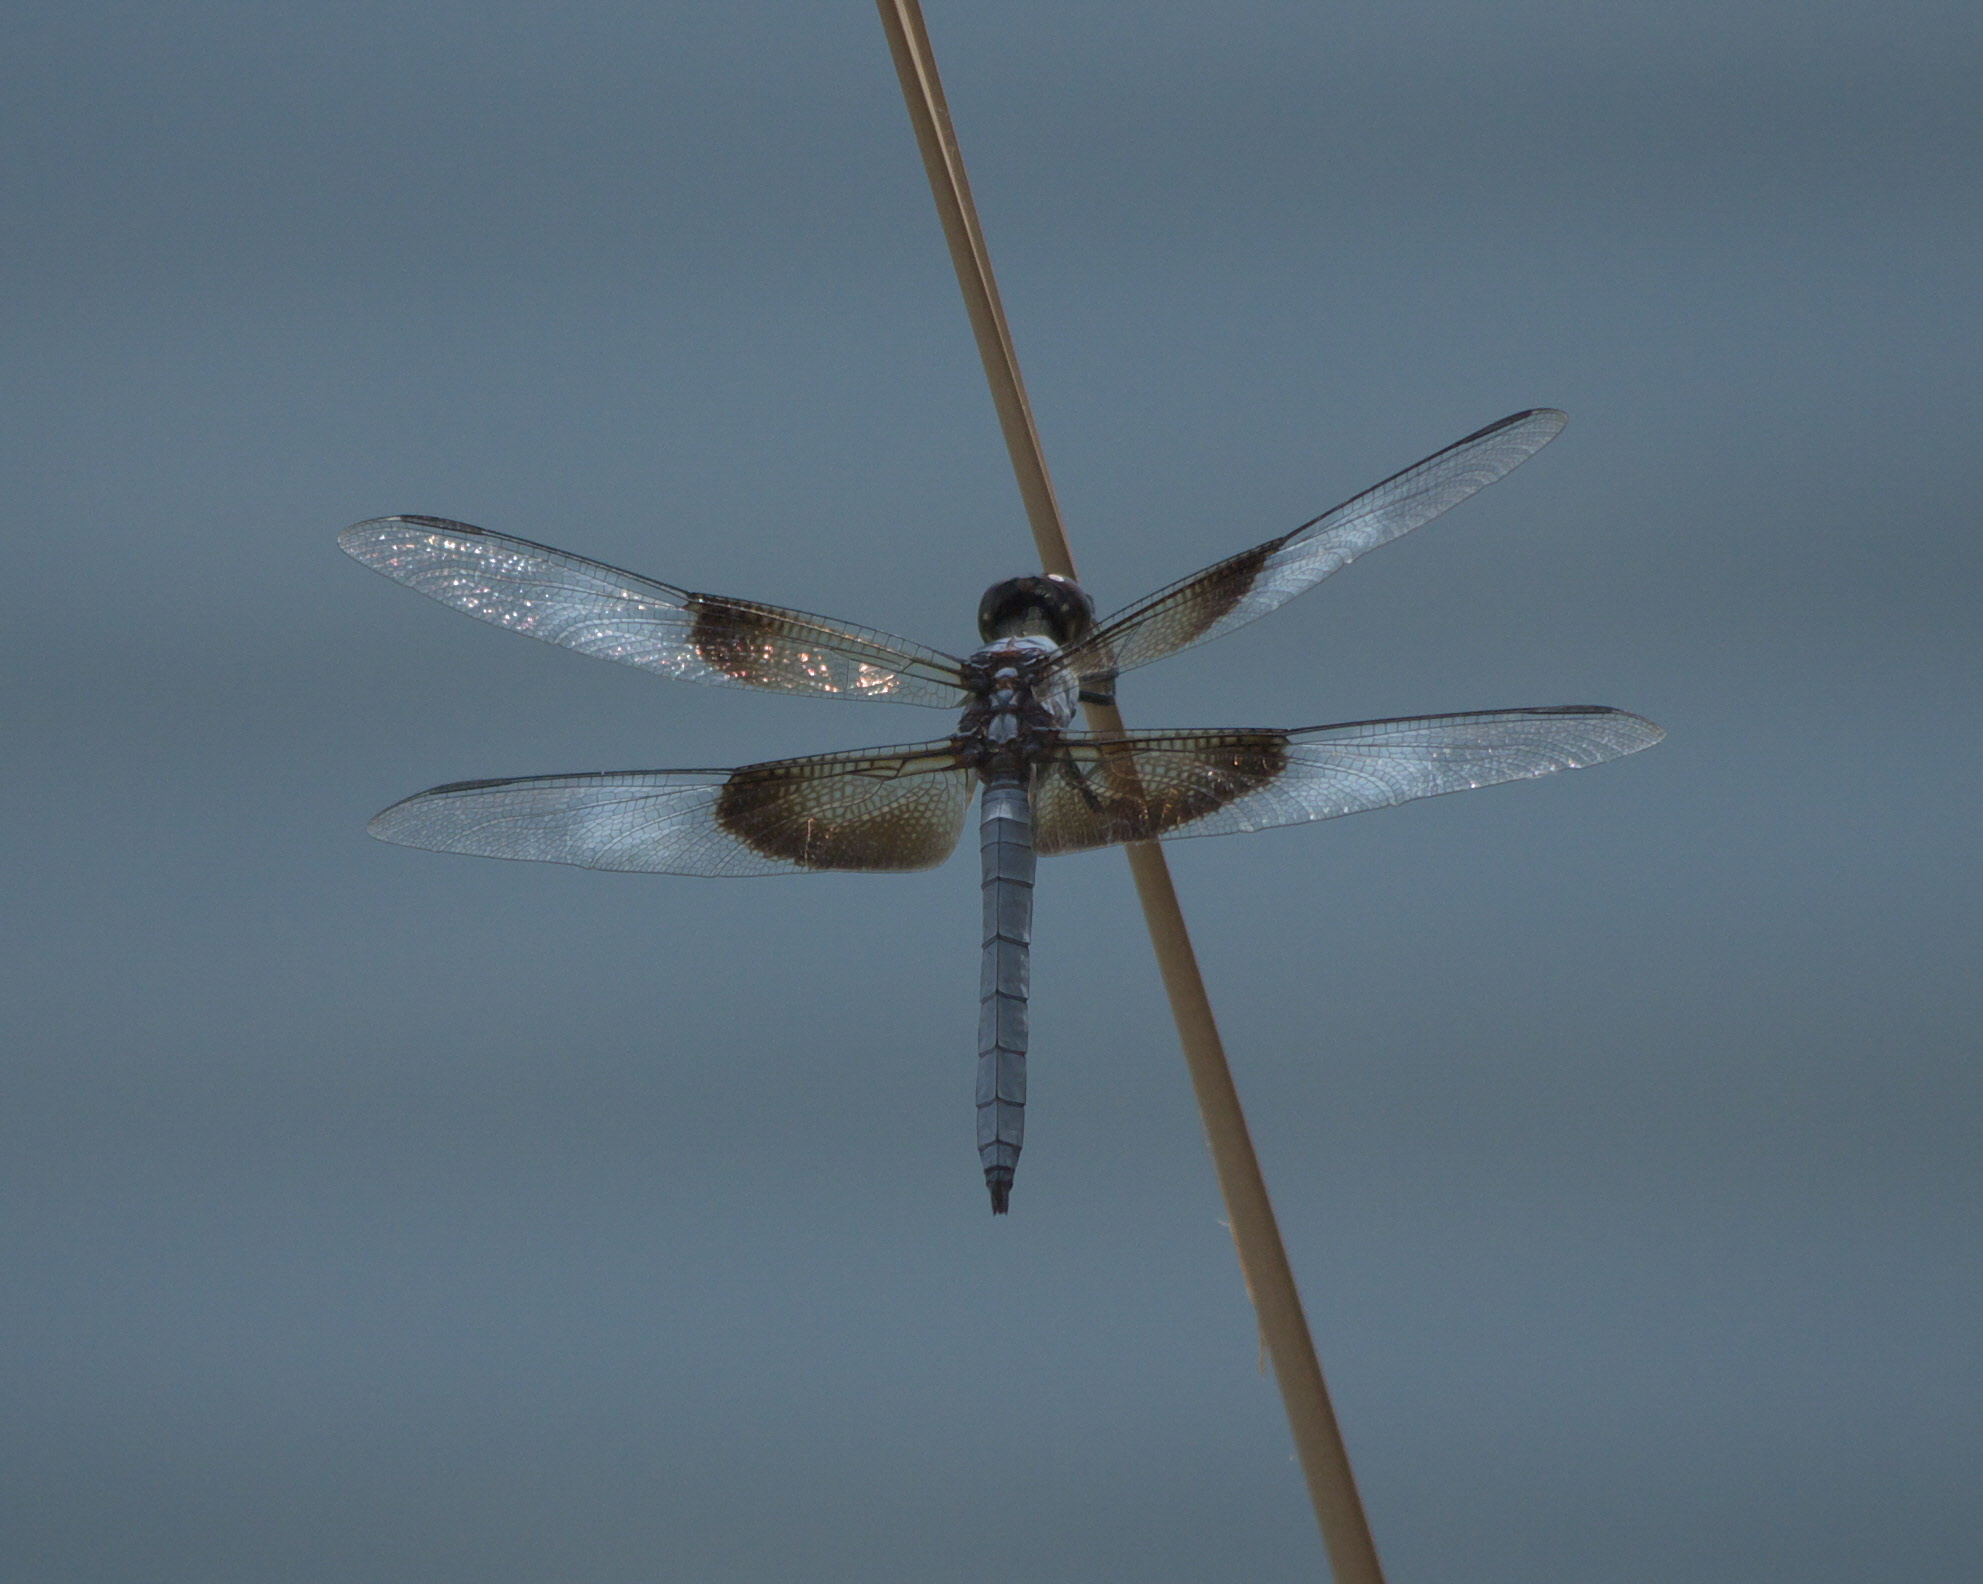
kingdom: Animalia
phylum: Arthropoda
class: Insecta
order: Odonata
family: Libellulidae
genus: Libellula
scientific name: Libellula luctuosa
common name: Widow skimmer
